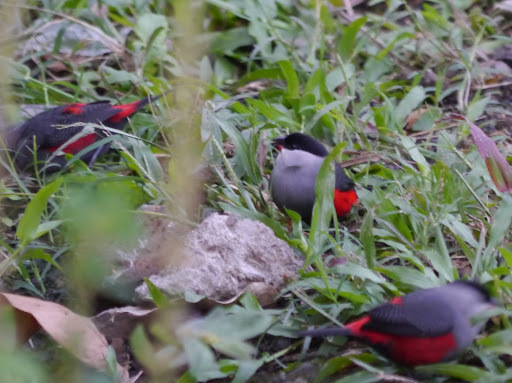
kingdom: Animalia
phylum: Chordata
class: Aves
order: Passeriformes
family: Estrildidae
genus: Estrilda
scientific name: Estrilda atricapilla
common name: Black-headed waxbill
